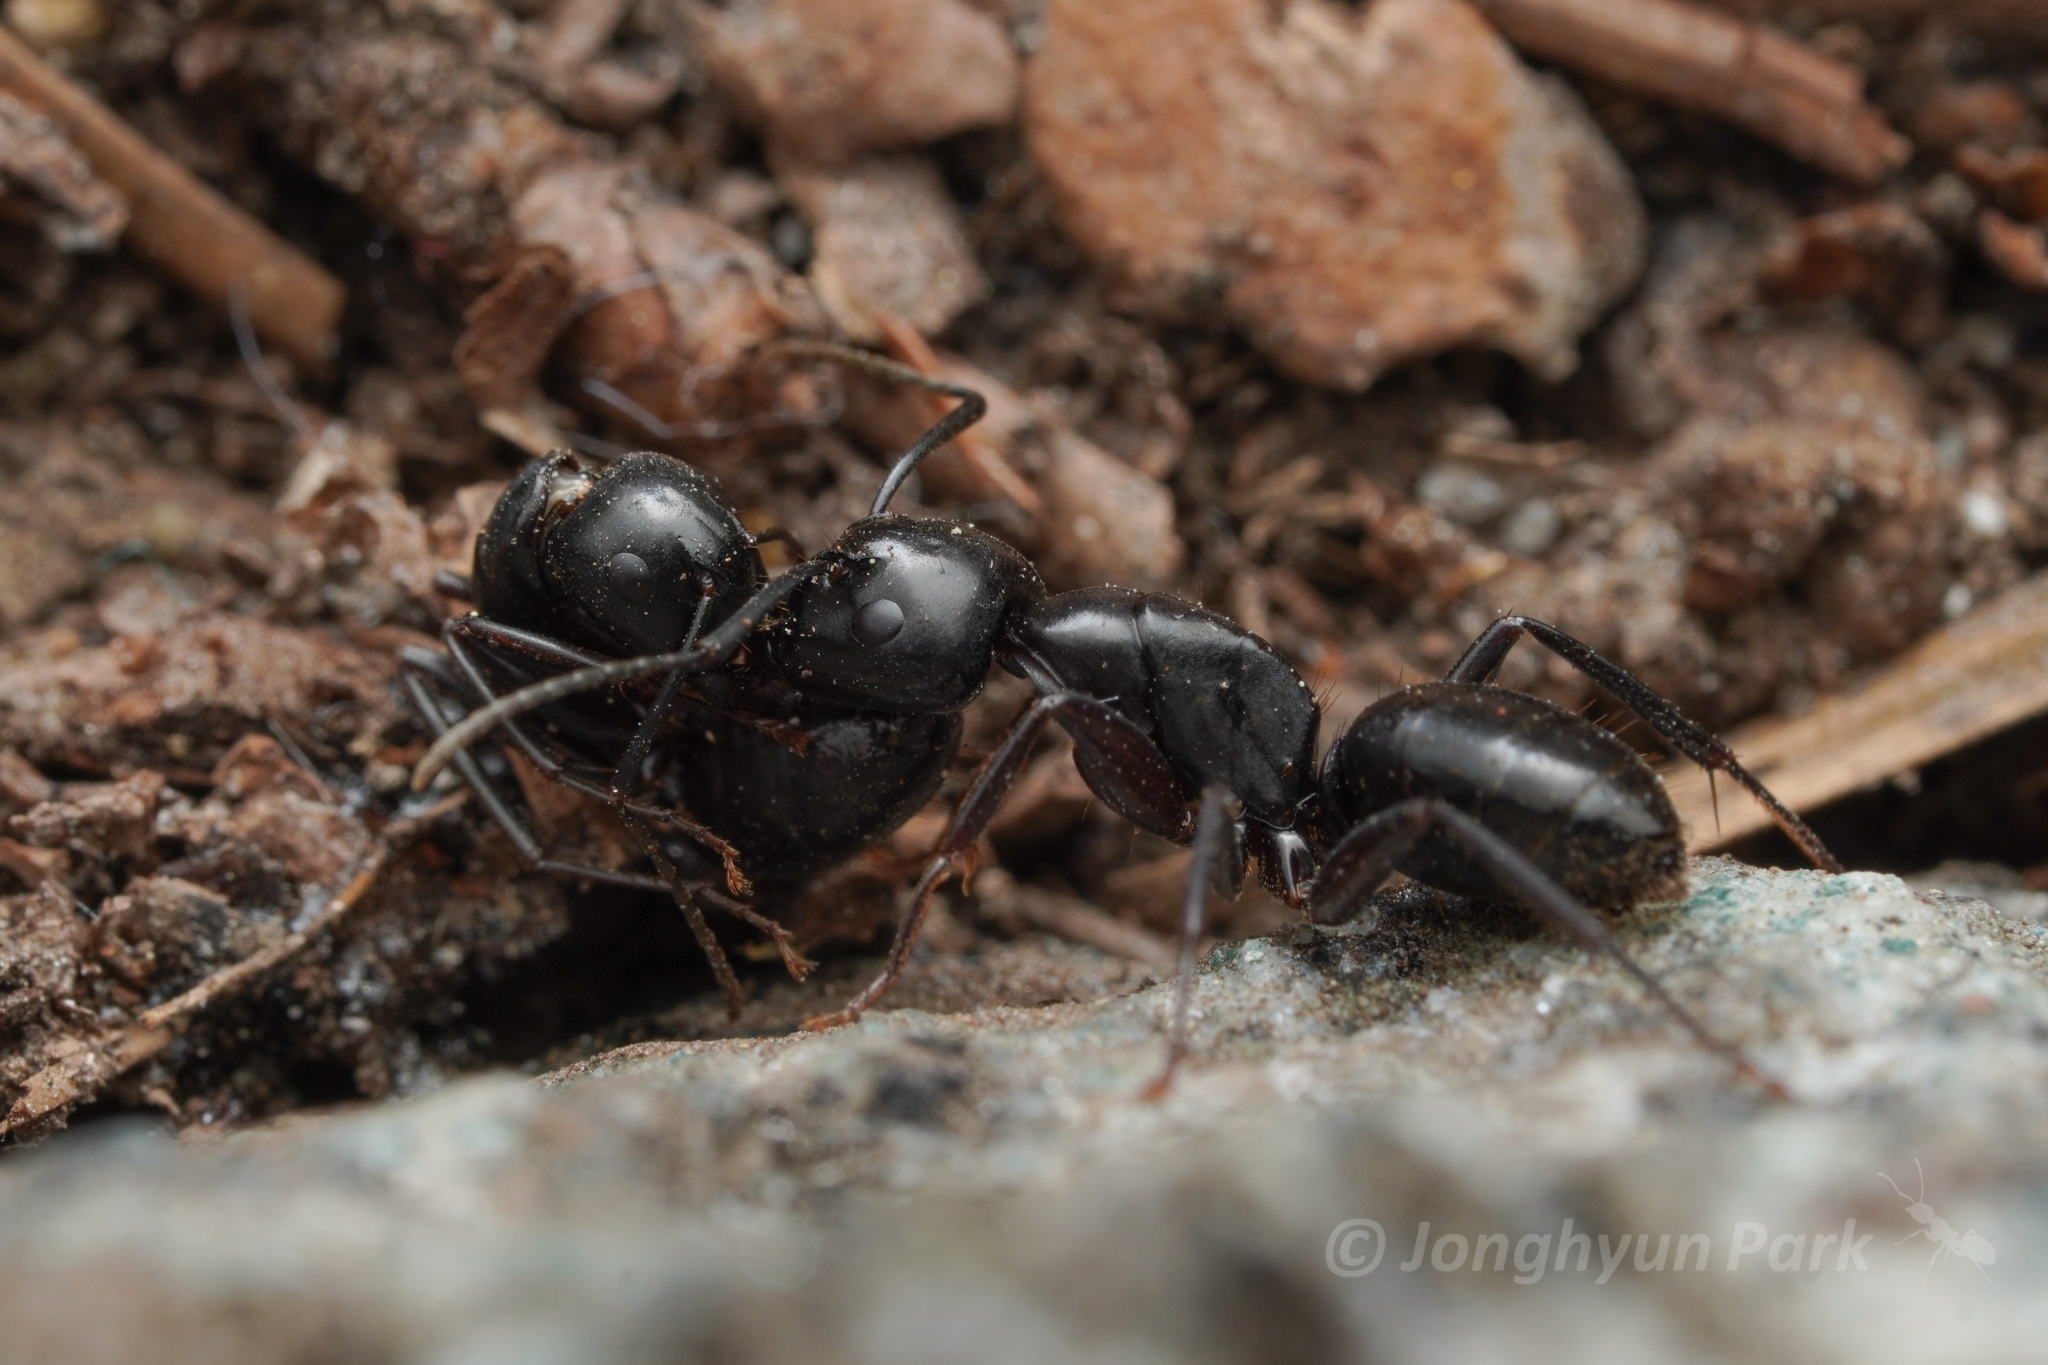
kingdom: Animalia
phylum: Arthropoda
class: Insecta
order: Hymenoptera
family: Formicidae
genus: Camponotus
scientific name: Camponotus laevigatus
